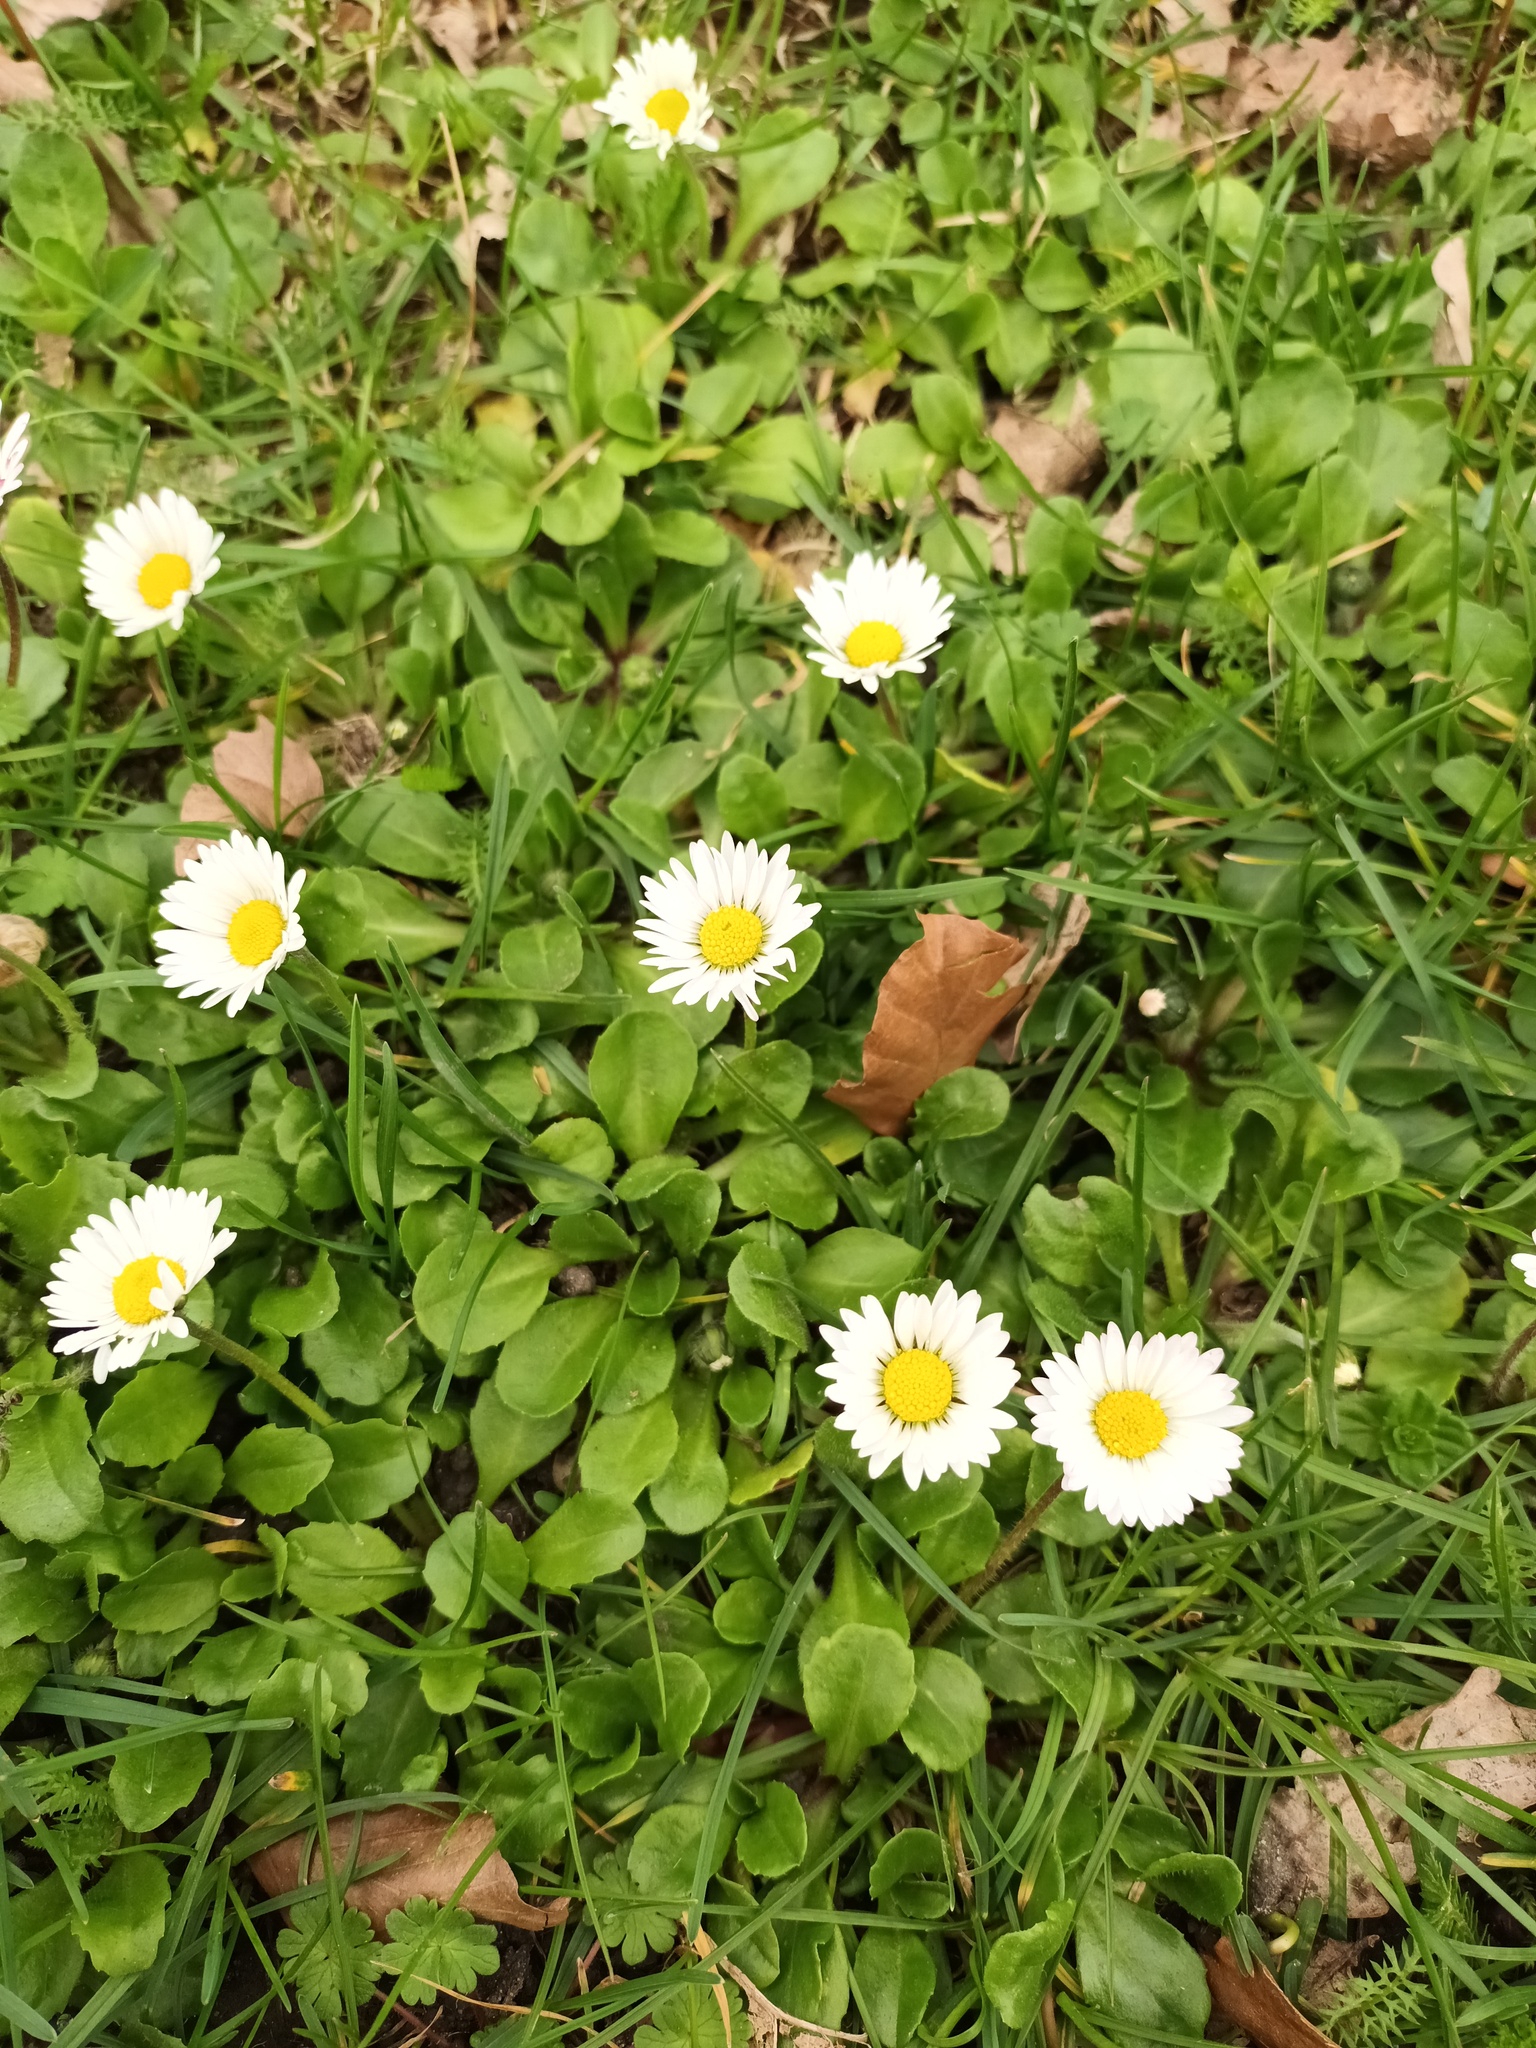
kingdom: Plantae
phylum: Tracheophyta
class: Magnoliopsida
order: Asterales
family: Asteraceae
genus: Bellis
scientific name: Bellis perennis
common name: Lawndaisy
